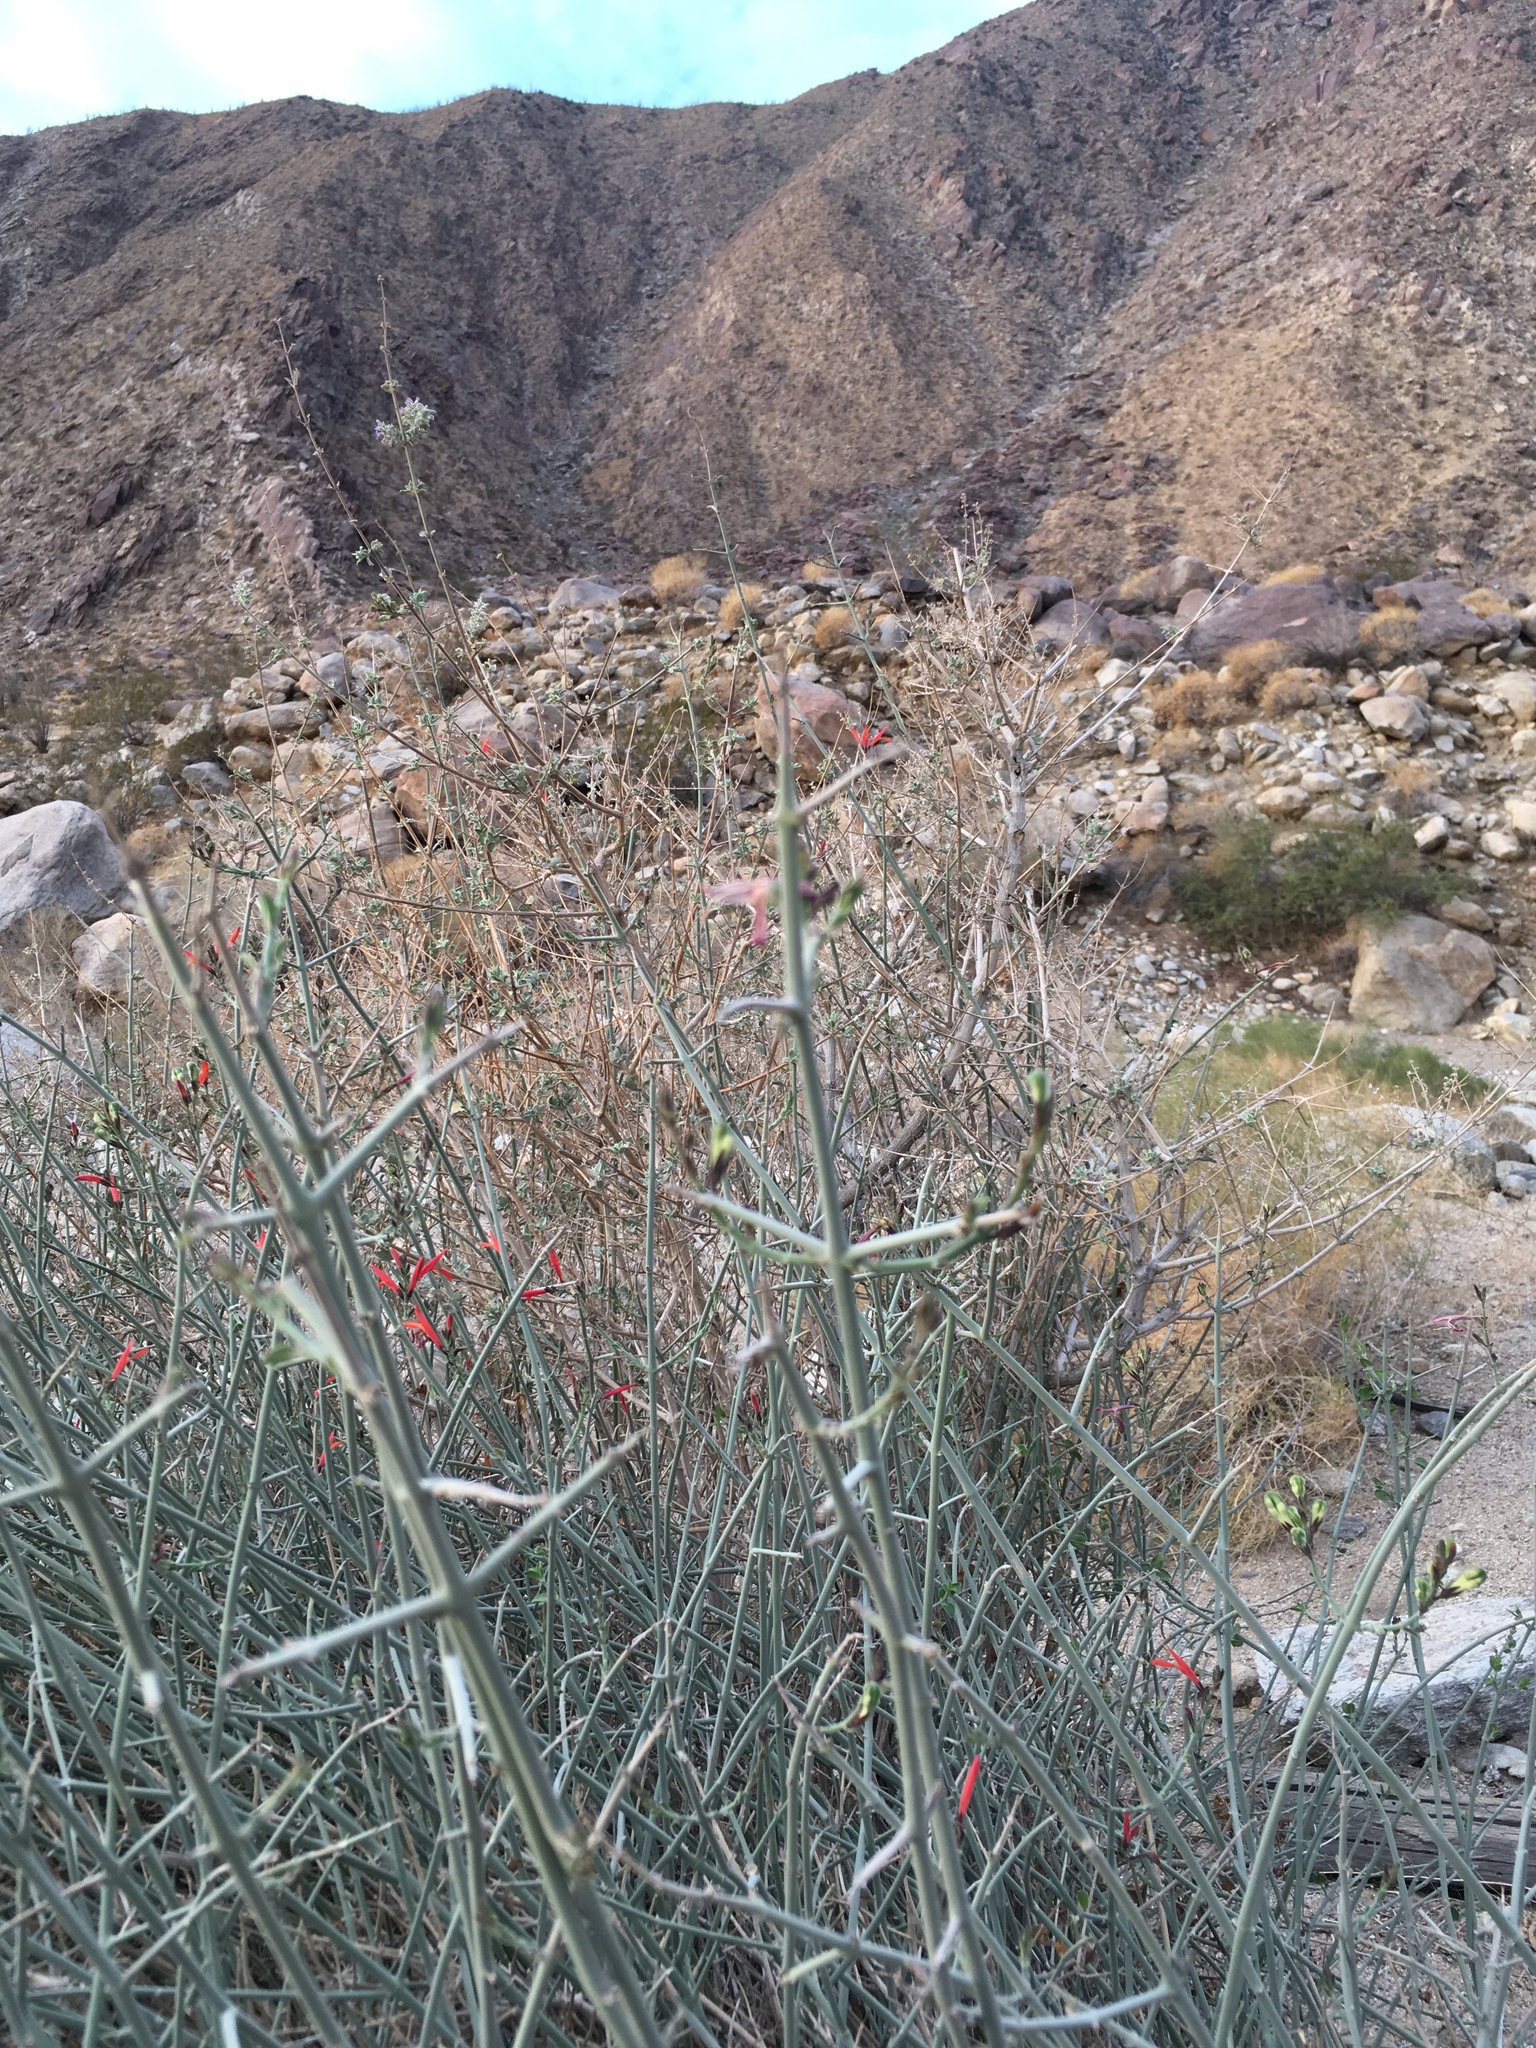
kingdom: Plantae
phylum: Tracheophyta
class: Magnoliopsida
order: Lamiales
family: Acanthaceae
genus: Justicia
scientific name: Justicia californica
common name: Chuparosa-honeysuckle
